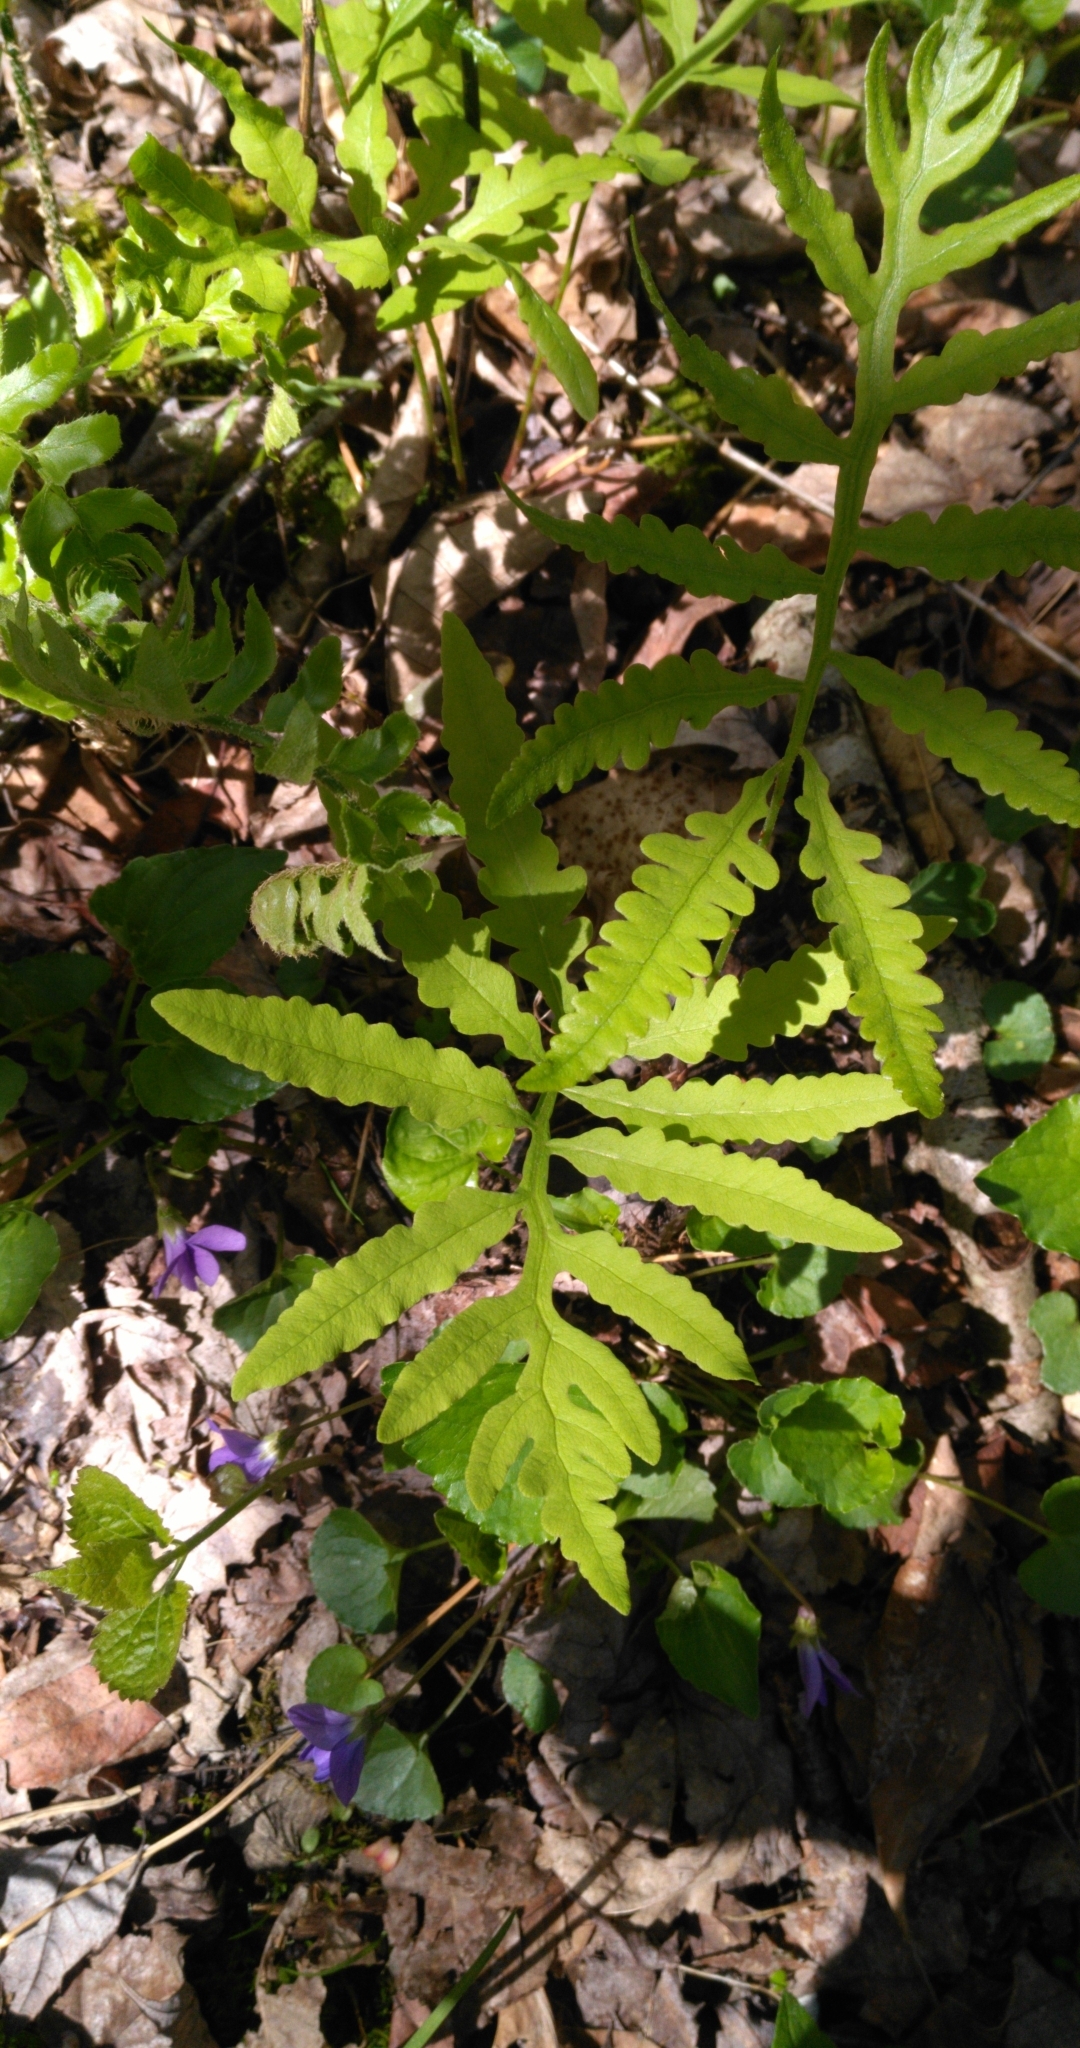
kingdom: Plantae
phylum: Tracheophyta
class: Polypodiopsida
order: Polypodiales
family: Onocleaceae
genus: Onoclea
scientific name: Onoclea sensibilis
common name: Sensitive fern
